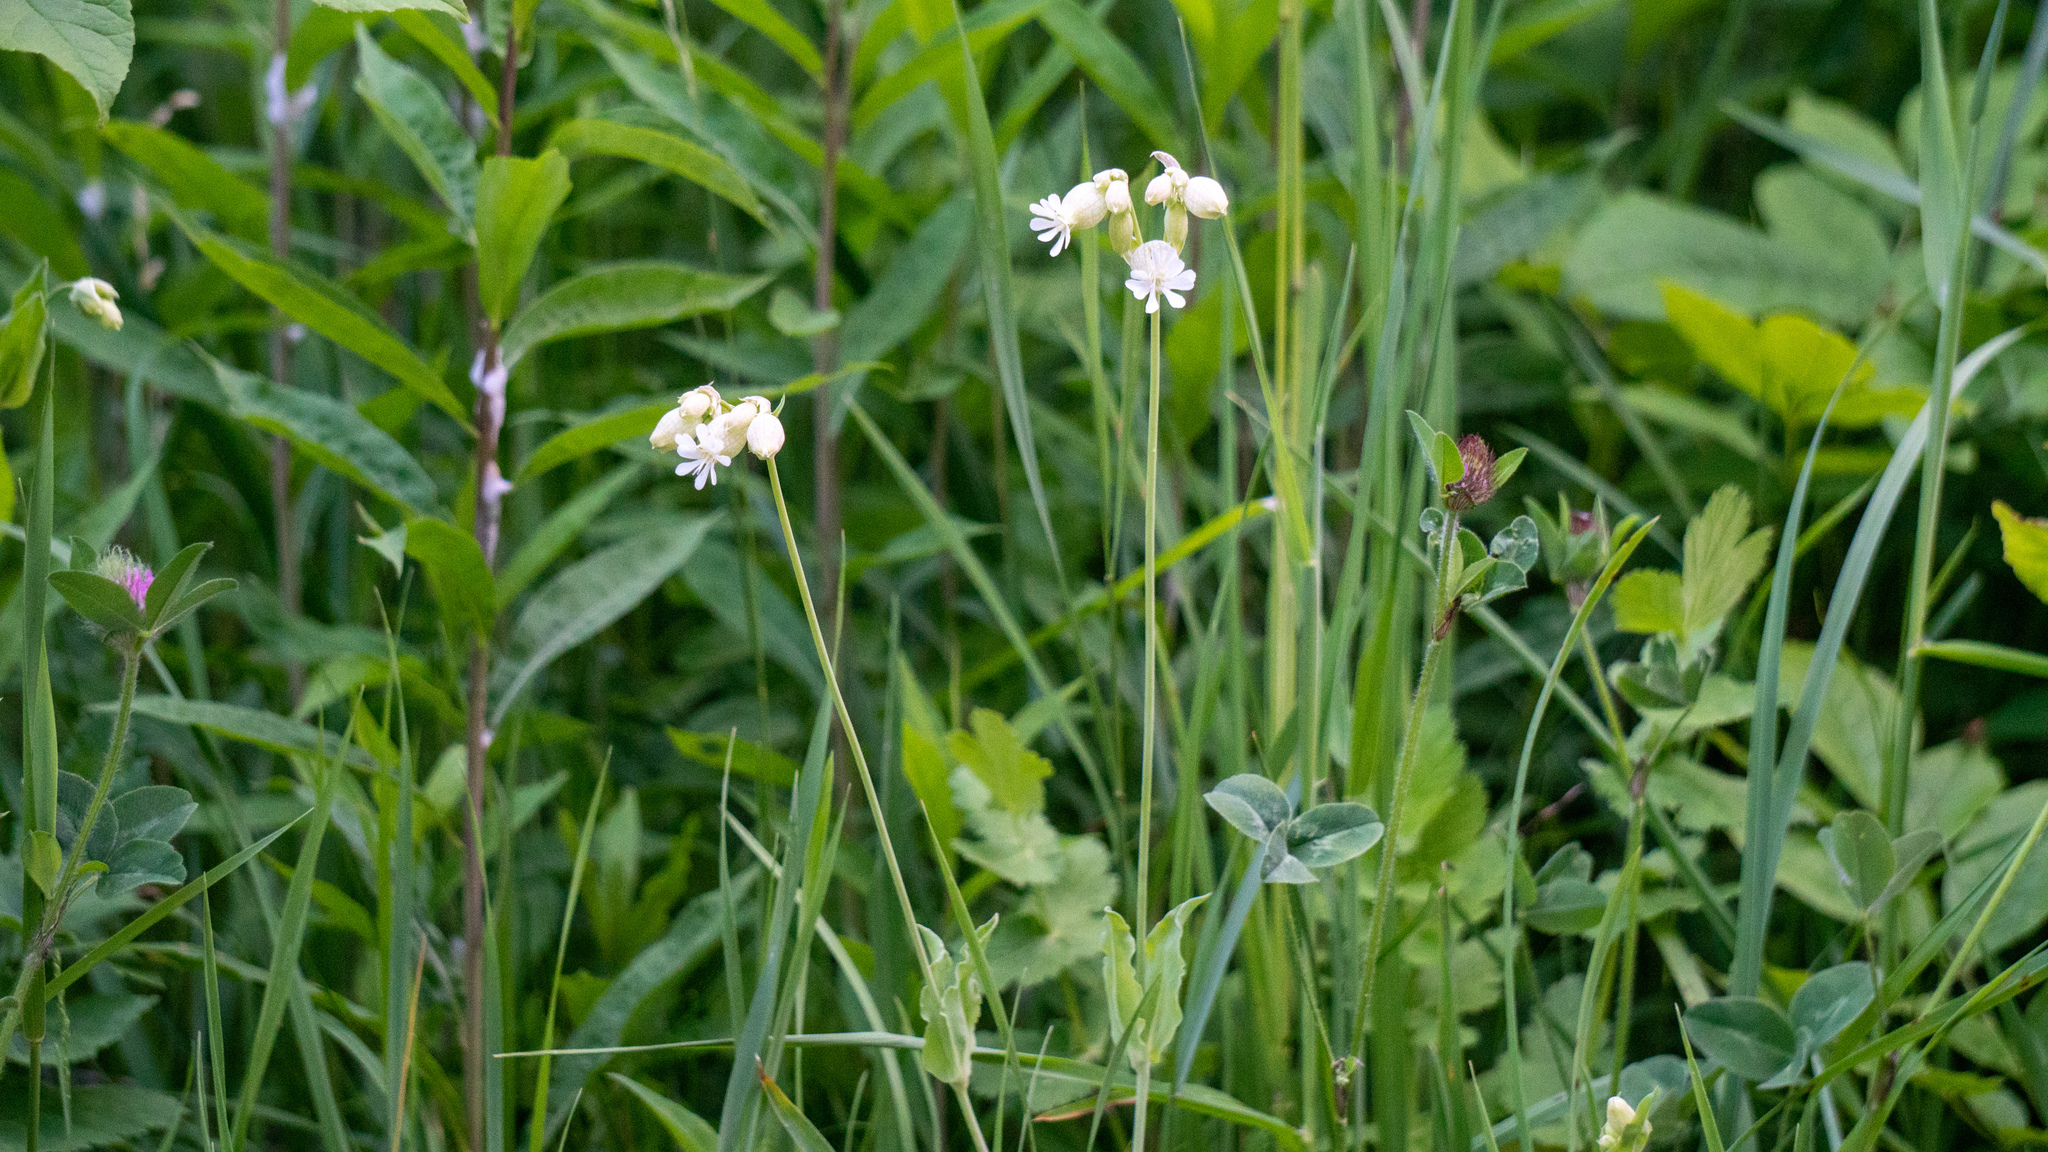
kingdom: Plantae
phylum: Tracheophyta
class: Magnoliopsida
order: Caryophyllales
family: Caryophyllaceae
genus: Silene
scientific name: Silene vulgaris
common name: Bladder campion
